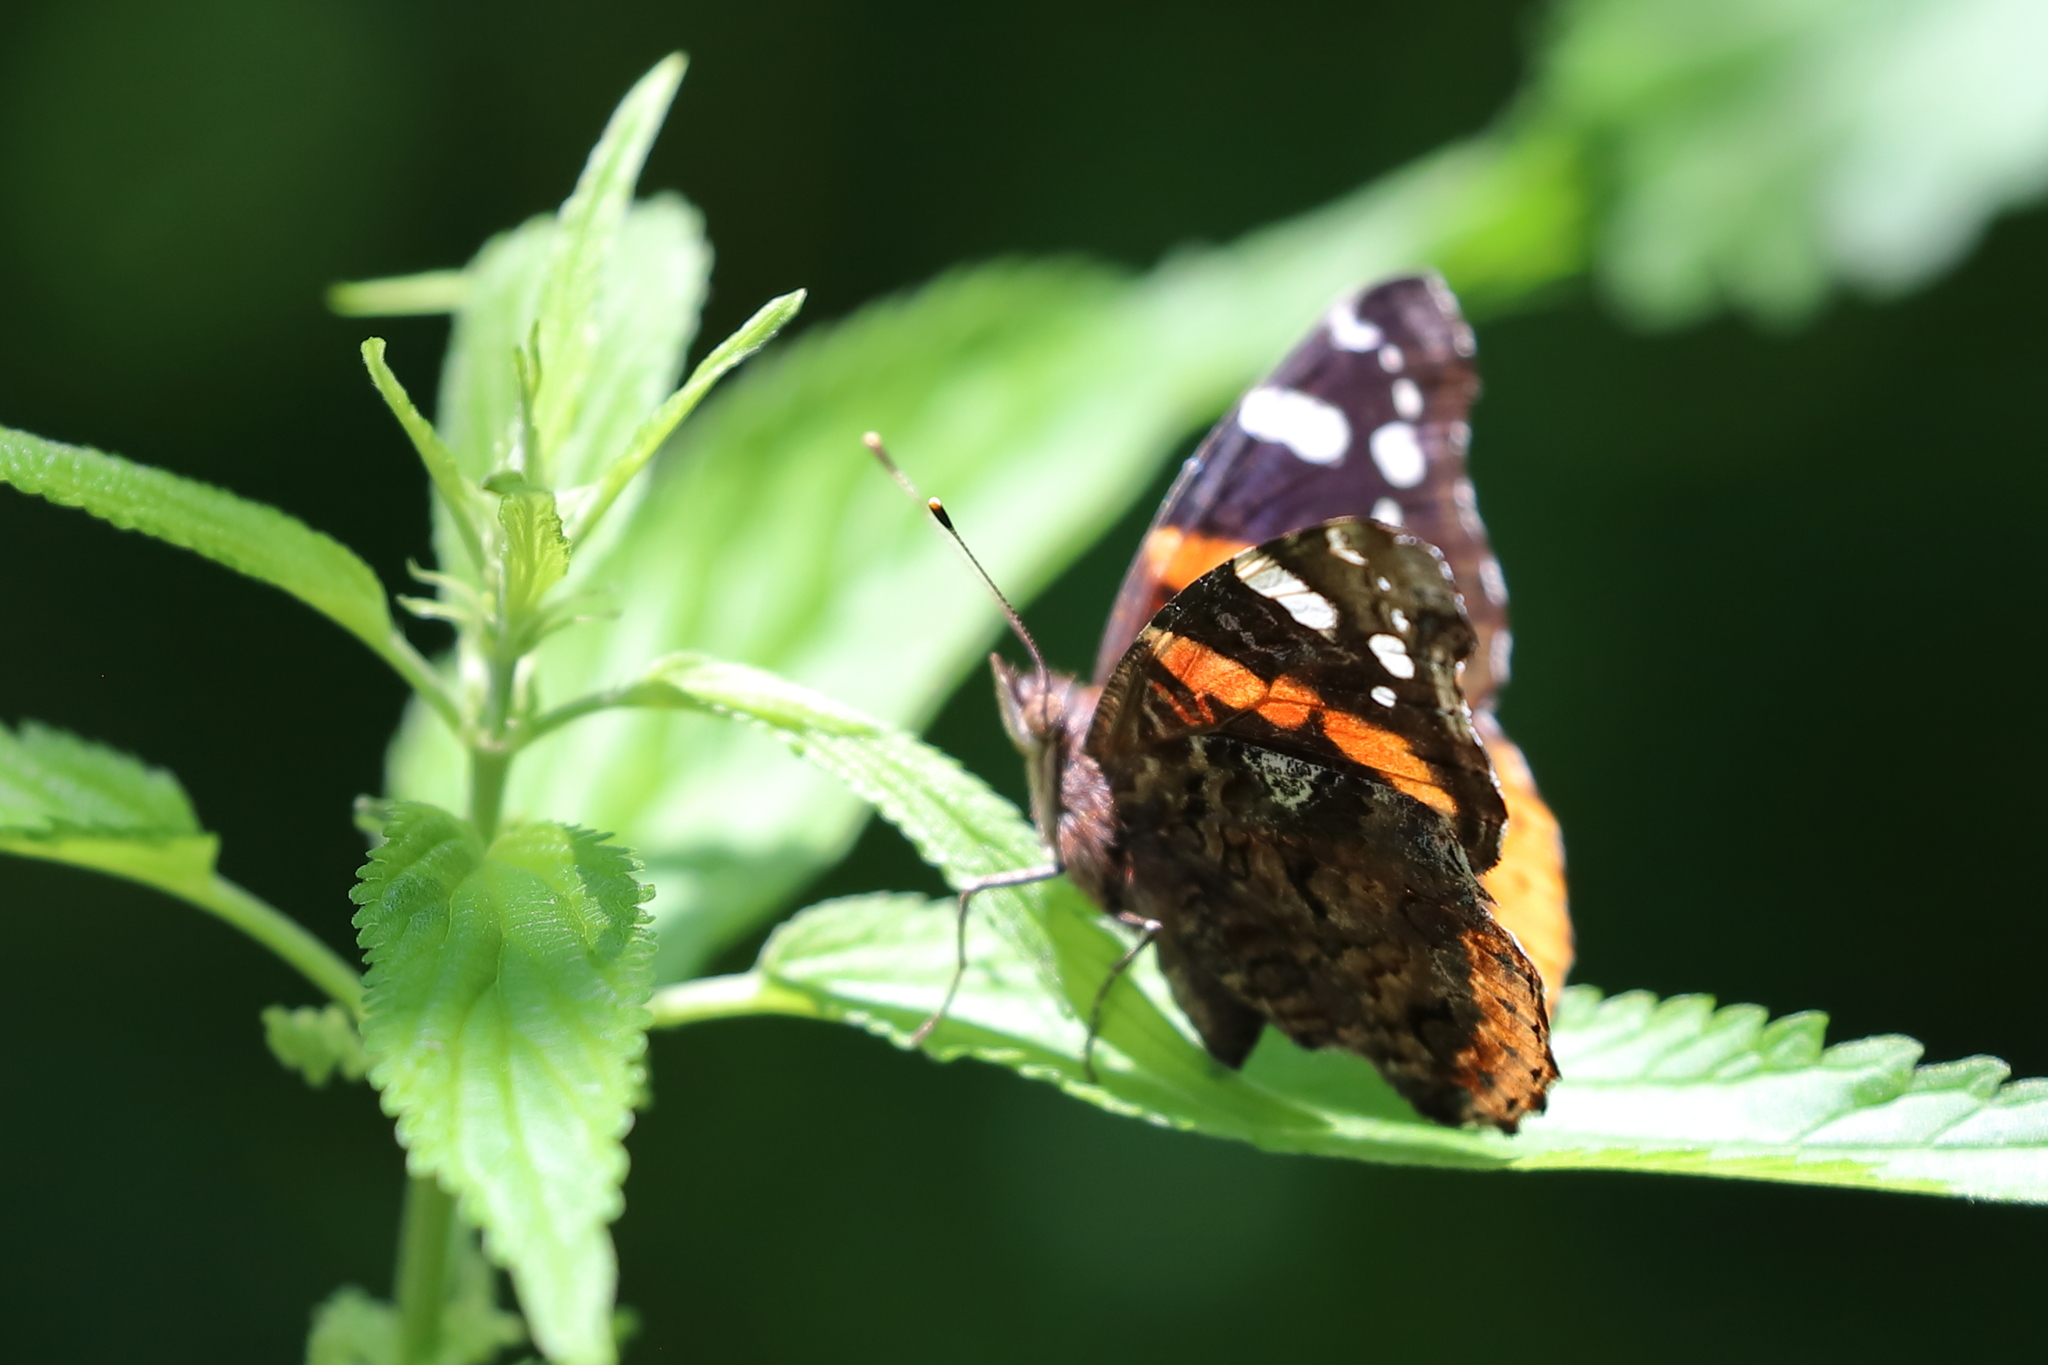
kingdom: Animalia
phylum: Arthropoda
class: Insecta
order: Lepidoptera
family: Nymphalidae
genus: Vanessa
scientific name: Vanessa atalanta
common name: Red admiral
